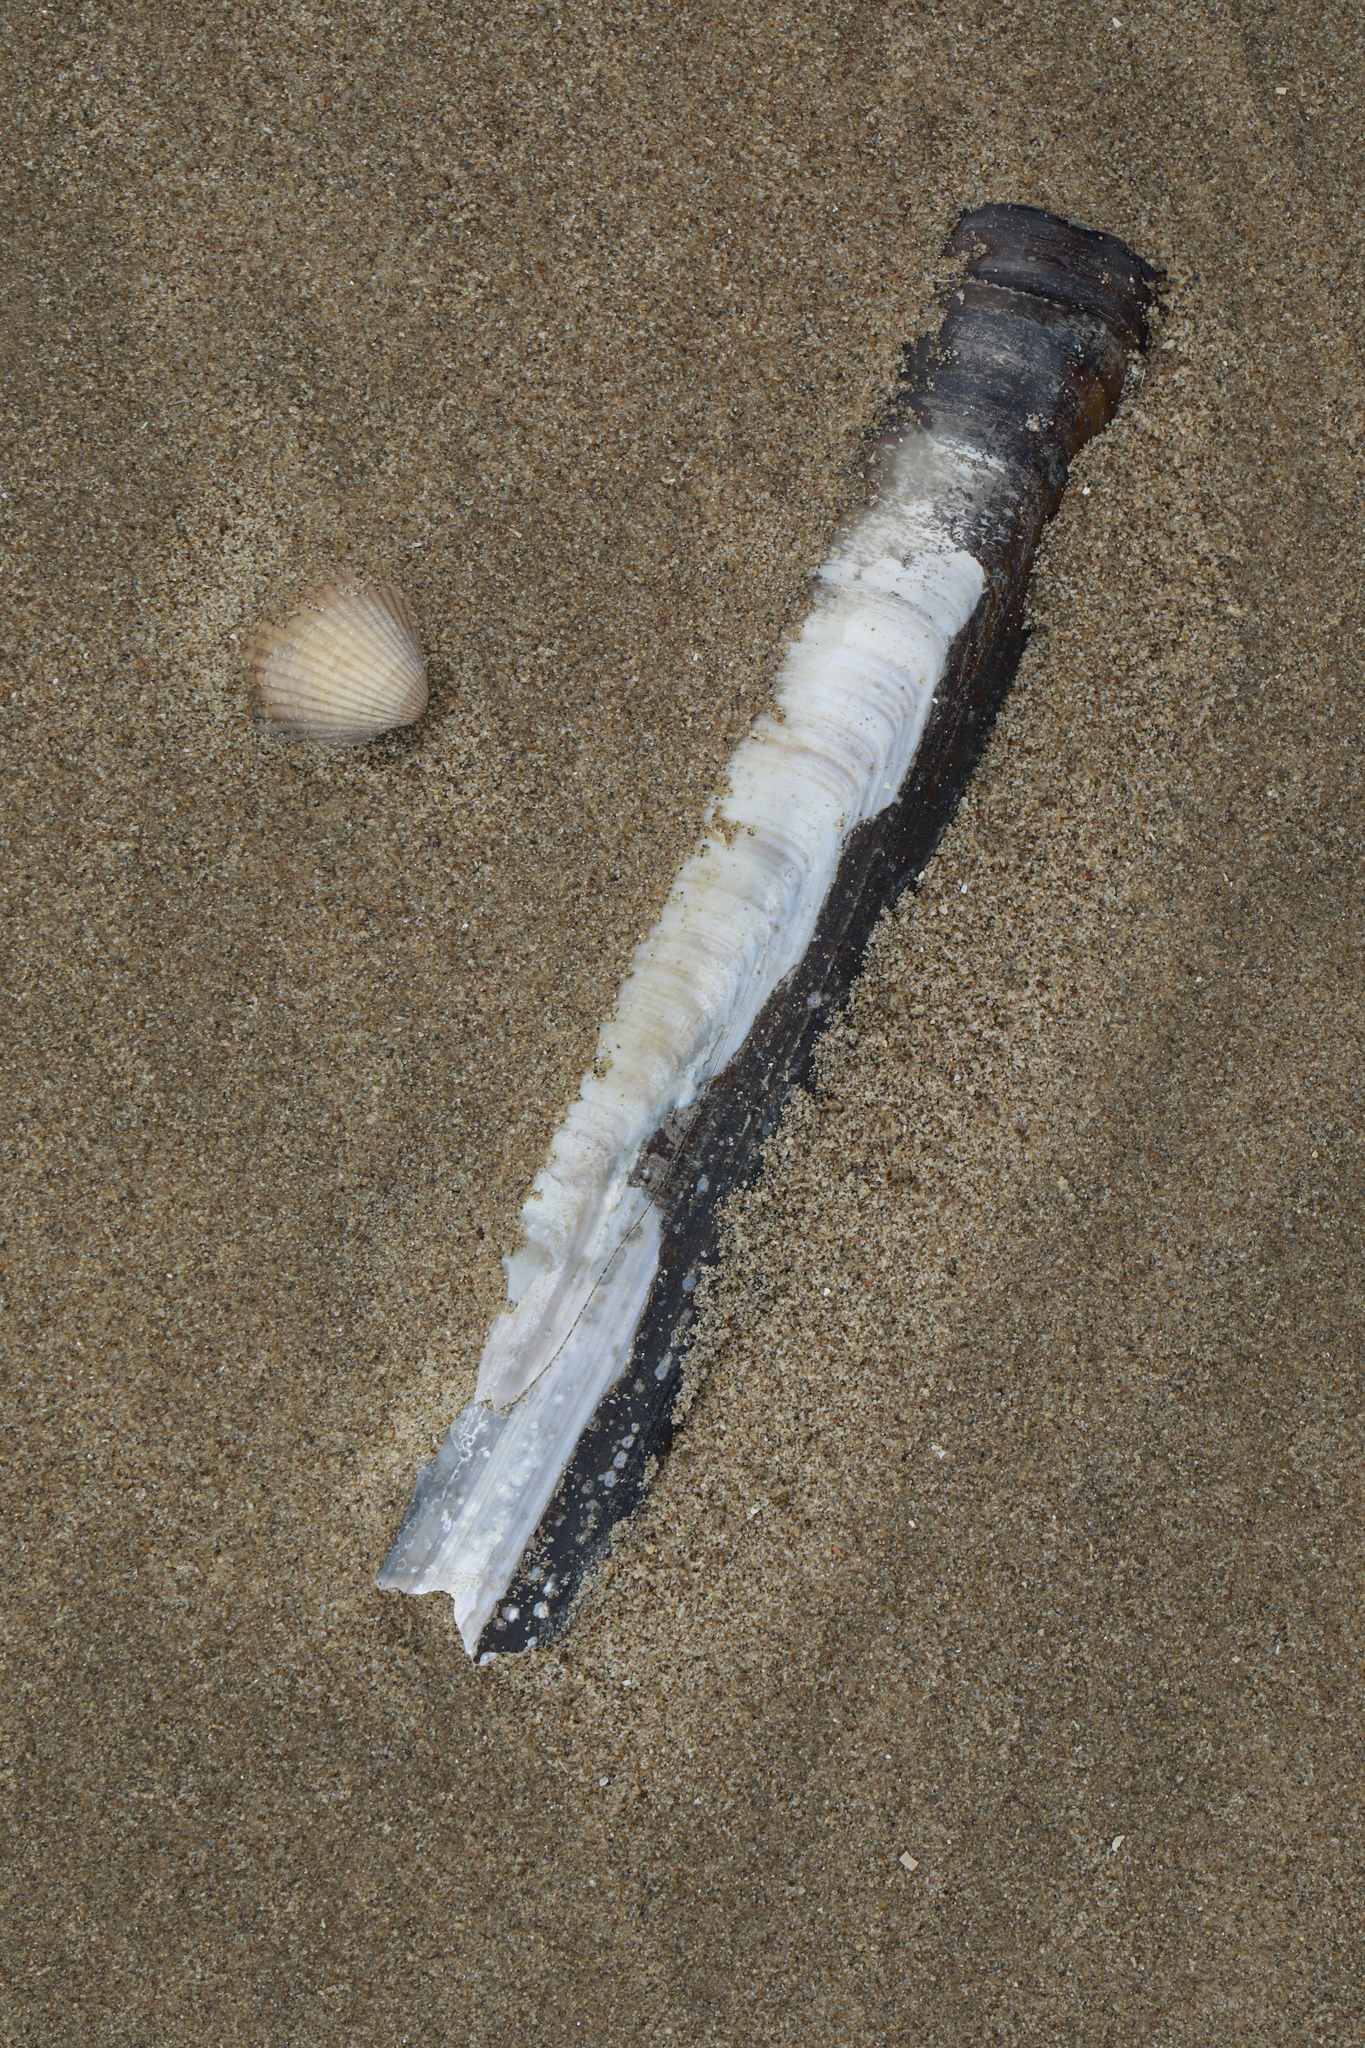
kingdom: Animalia
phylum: Mollusca
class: Bivalvia
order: Adapedonta
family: Pharidae
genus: Ensis
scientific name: Ensis siliqua
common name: Pod razor shell
